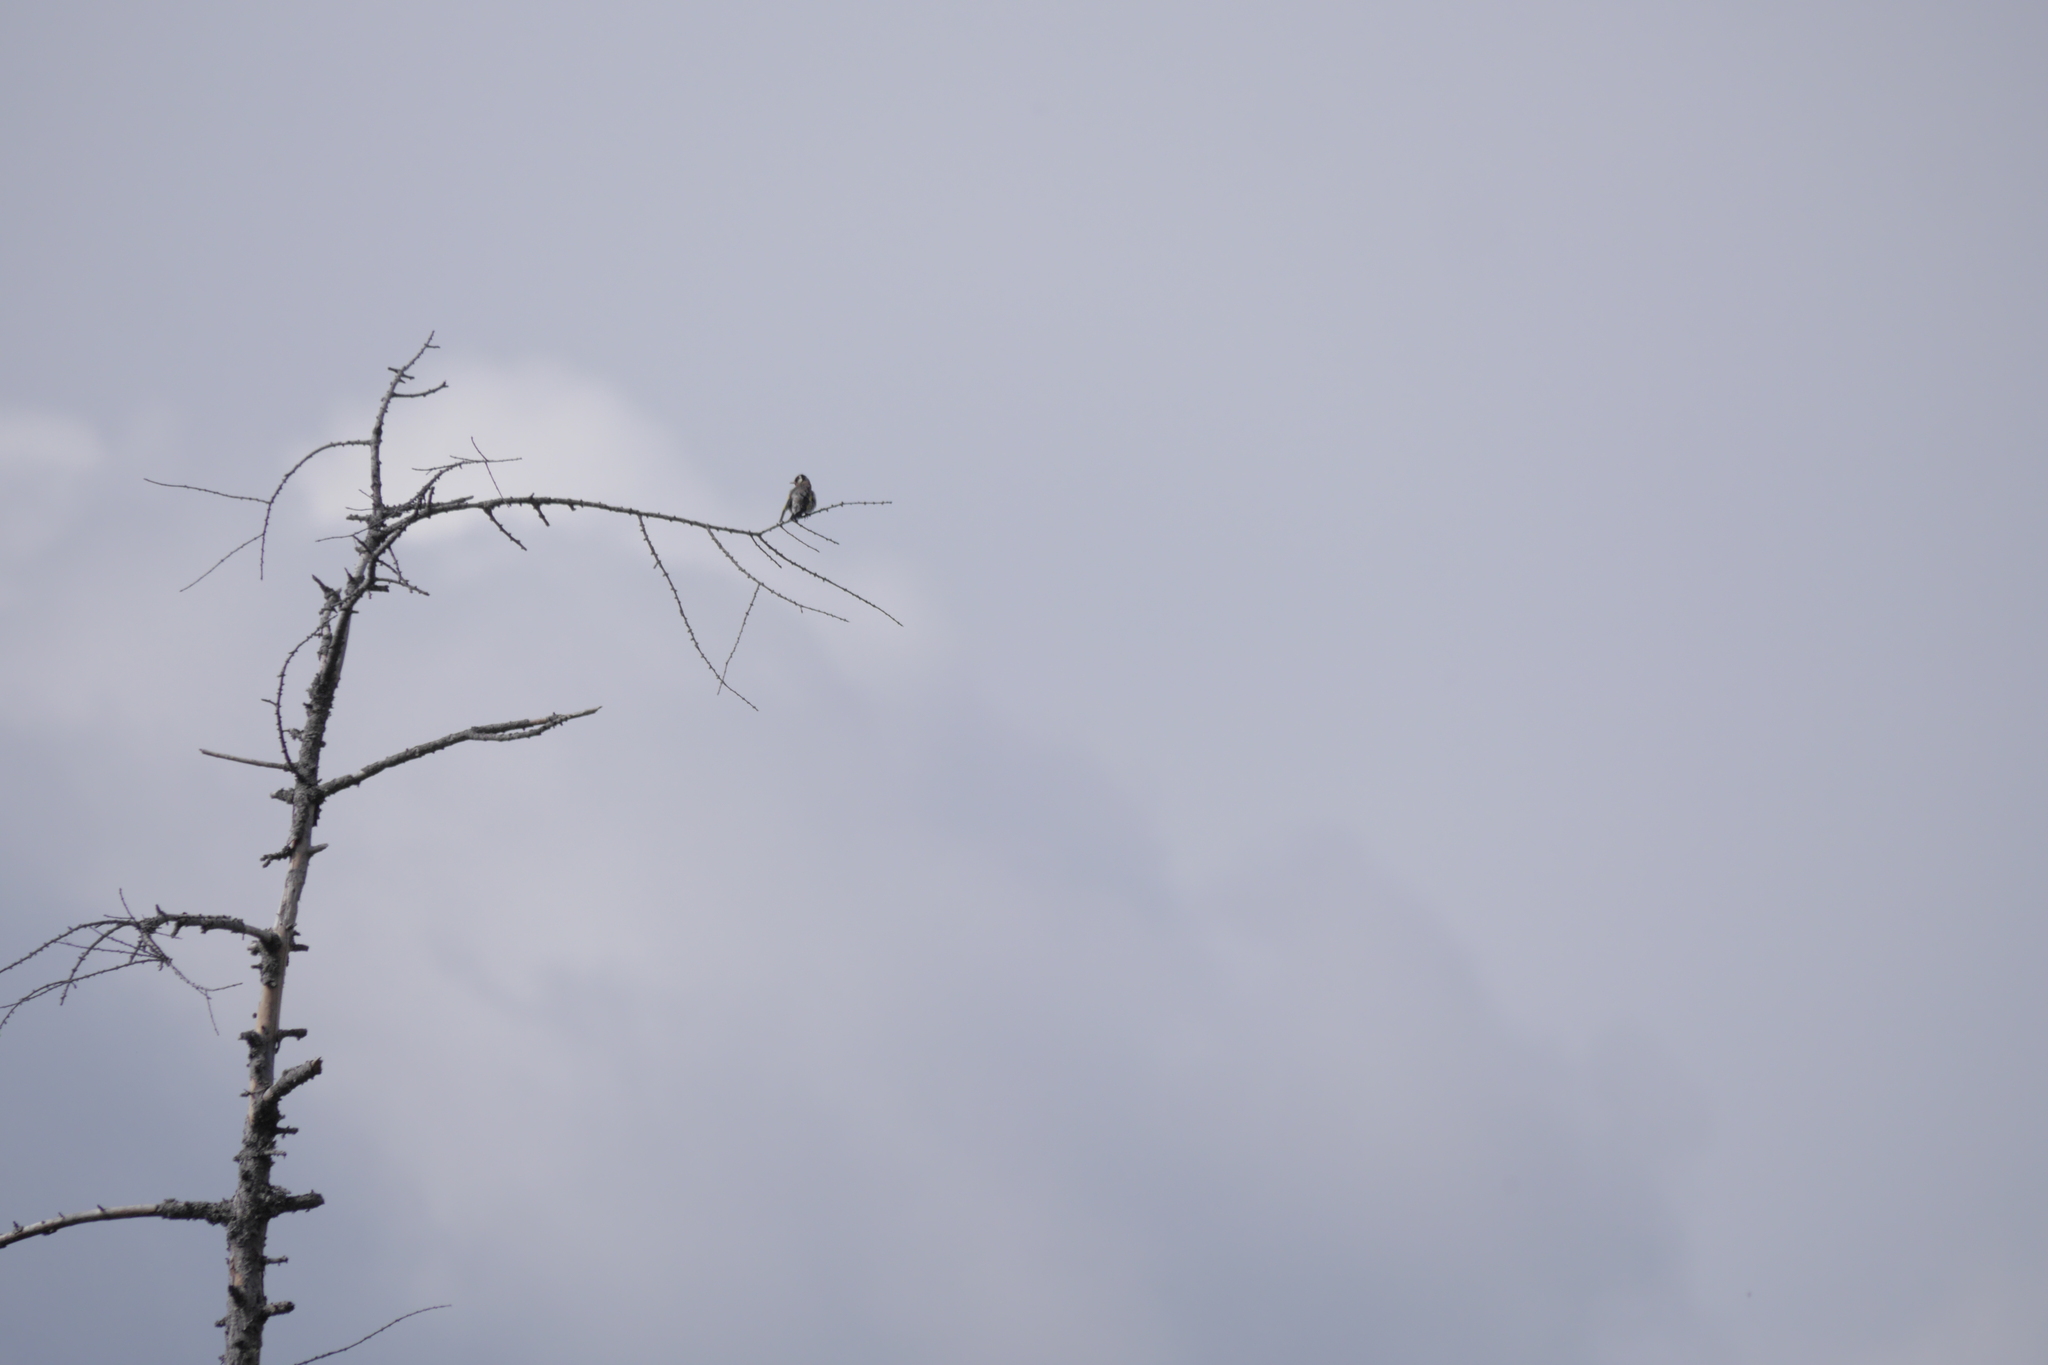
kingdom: Animalia
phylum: Chordata
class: Aves
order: Passeriformes
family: Fringillidae
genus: Carduelis
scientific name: Carduelis carduelis
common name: European goldfinch
